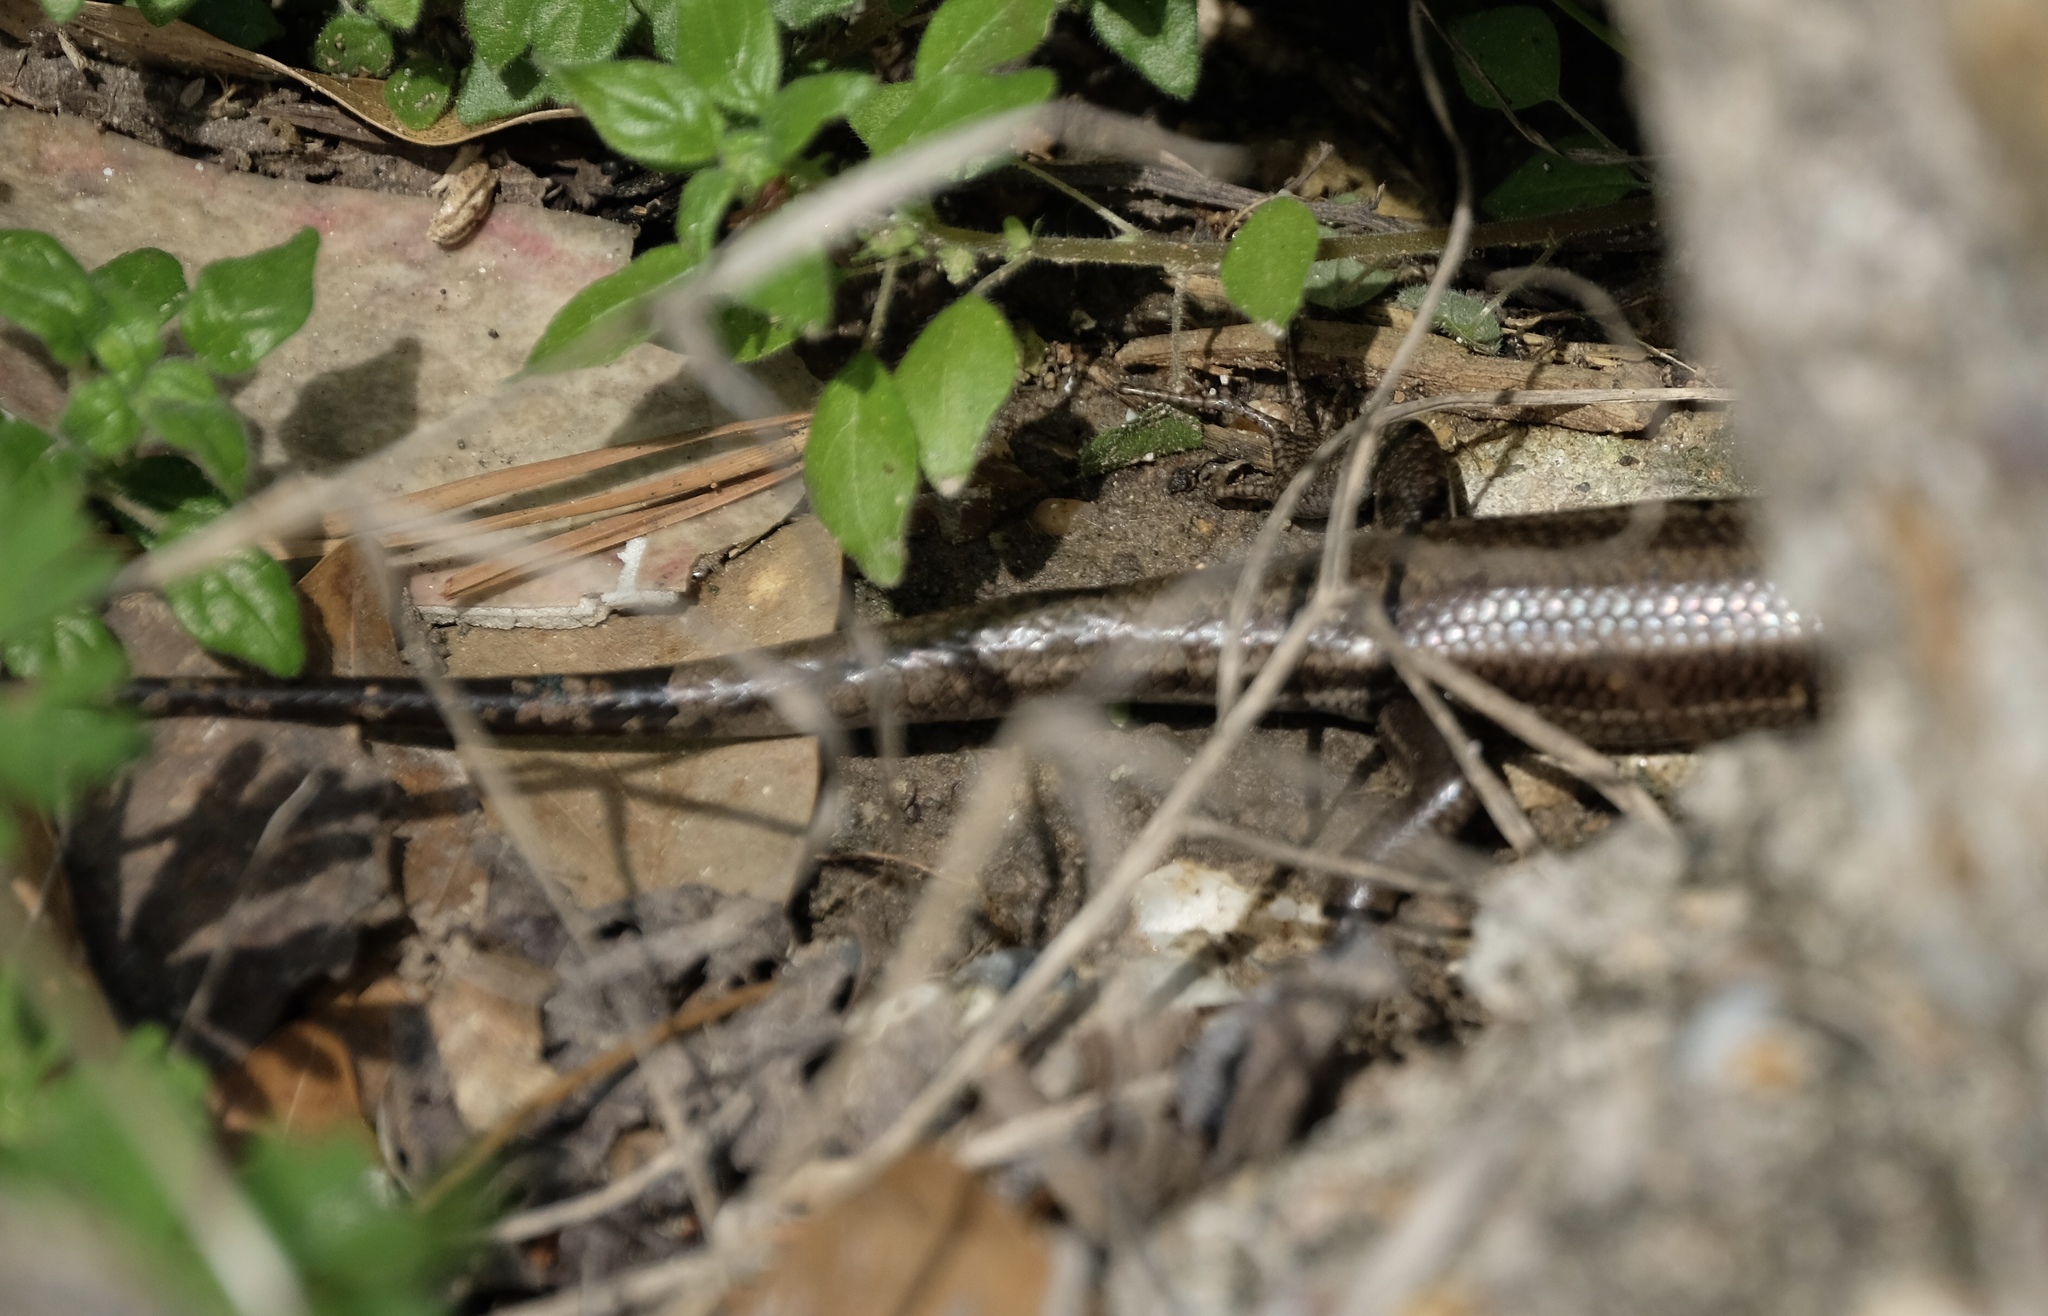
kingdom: Animalia
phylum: Chordata
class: Squamata
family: Scincidae
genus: Plestiodon
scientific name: Plestiodon fasciatus
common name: Five-lined skink
